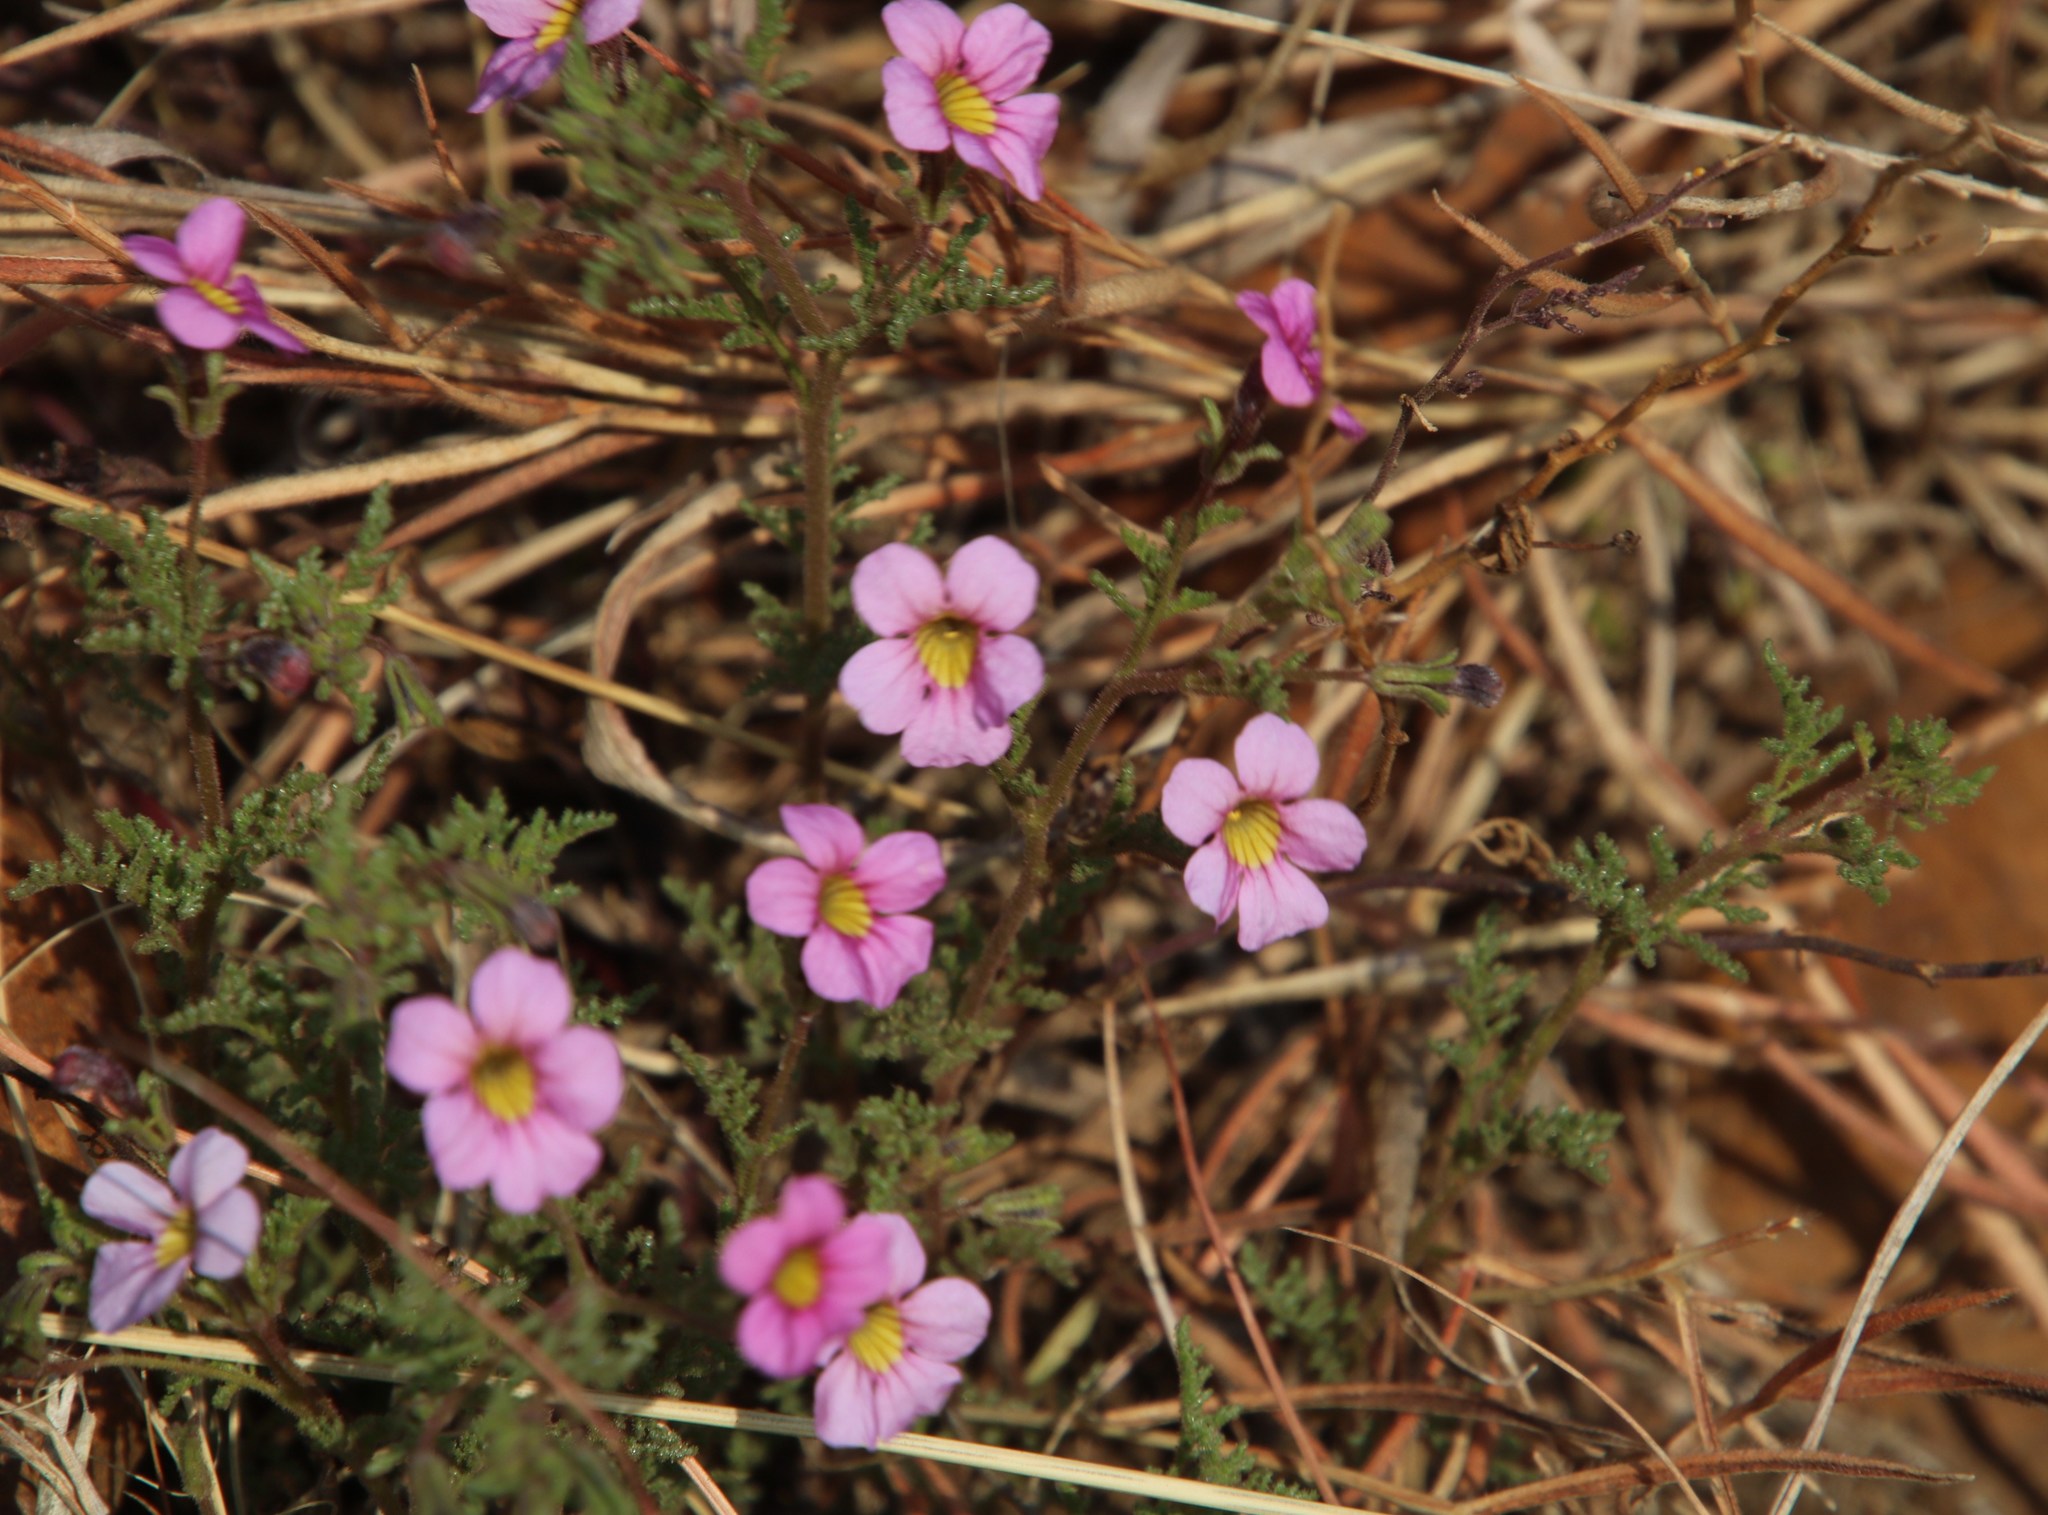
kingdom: Plantae
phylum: Tracheophyta
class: Magnoliopsida
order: Lamiales
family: Scrophulariaceae
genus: Jamesbrittenia
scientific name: Jamesbrittenia aurantiaca
